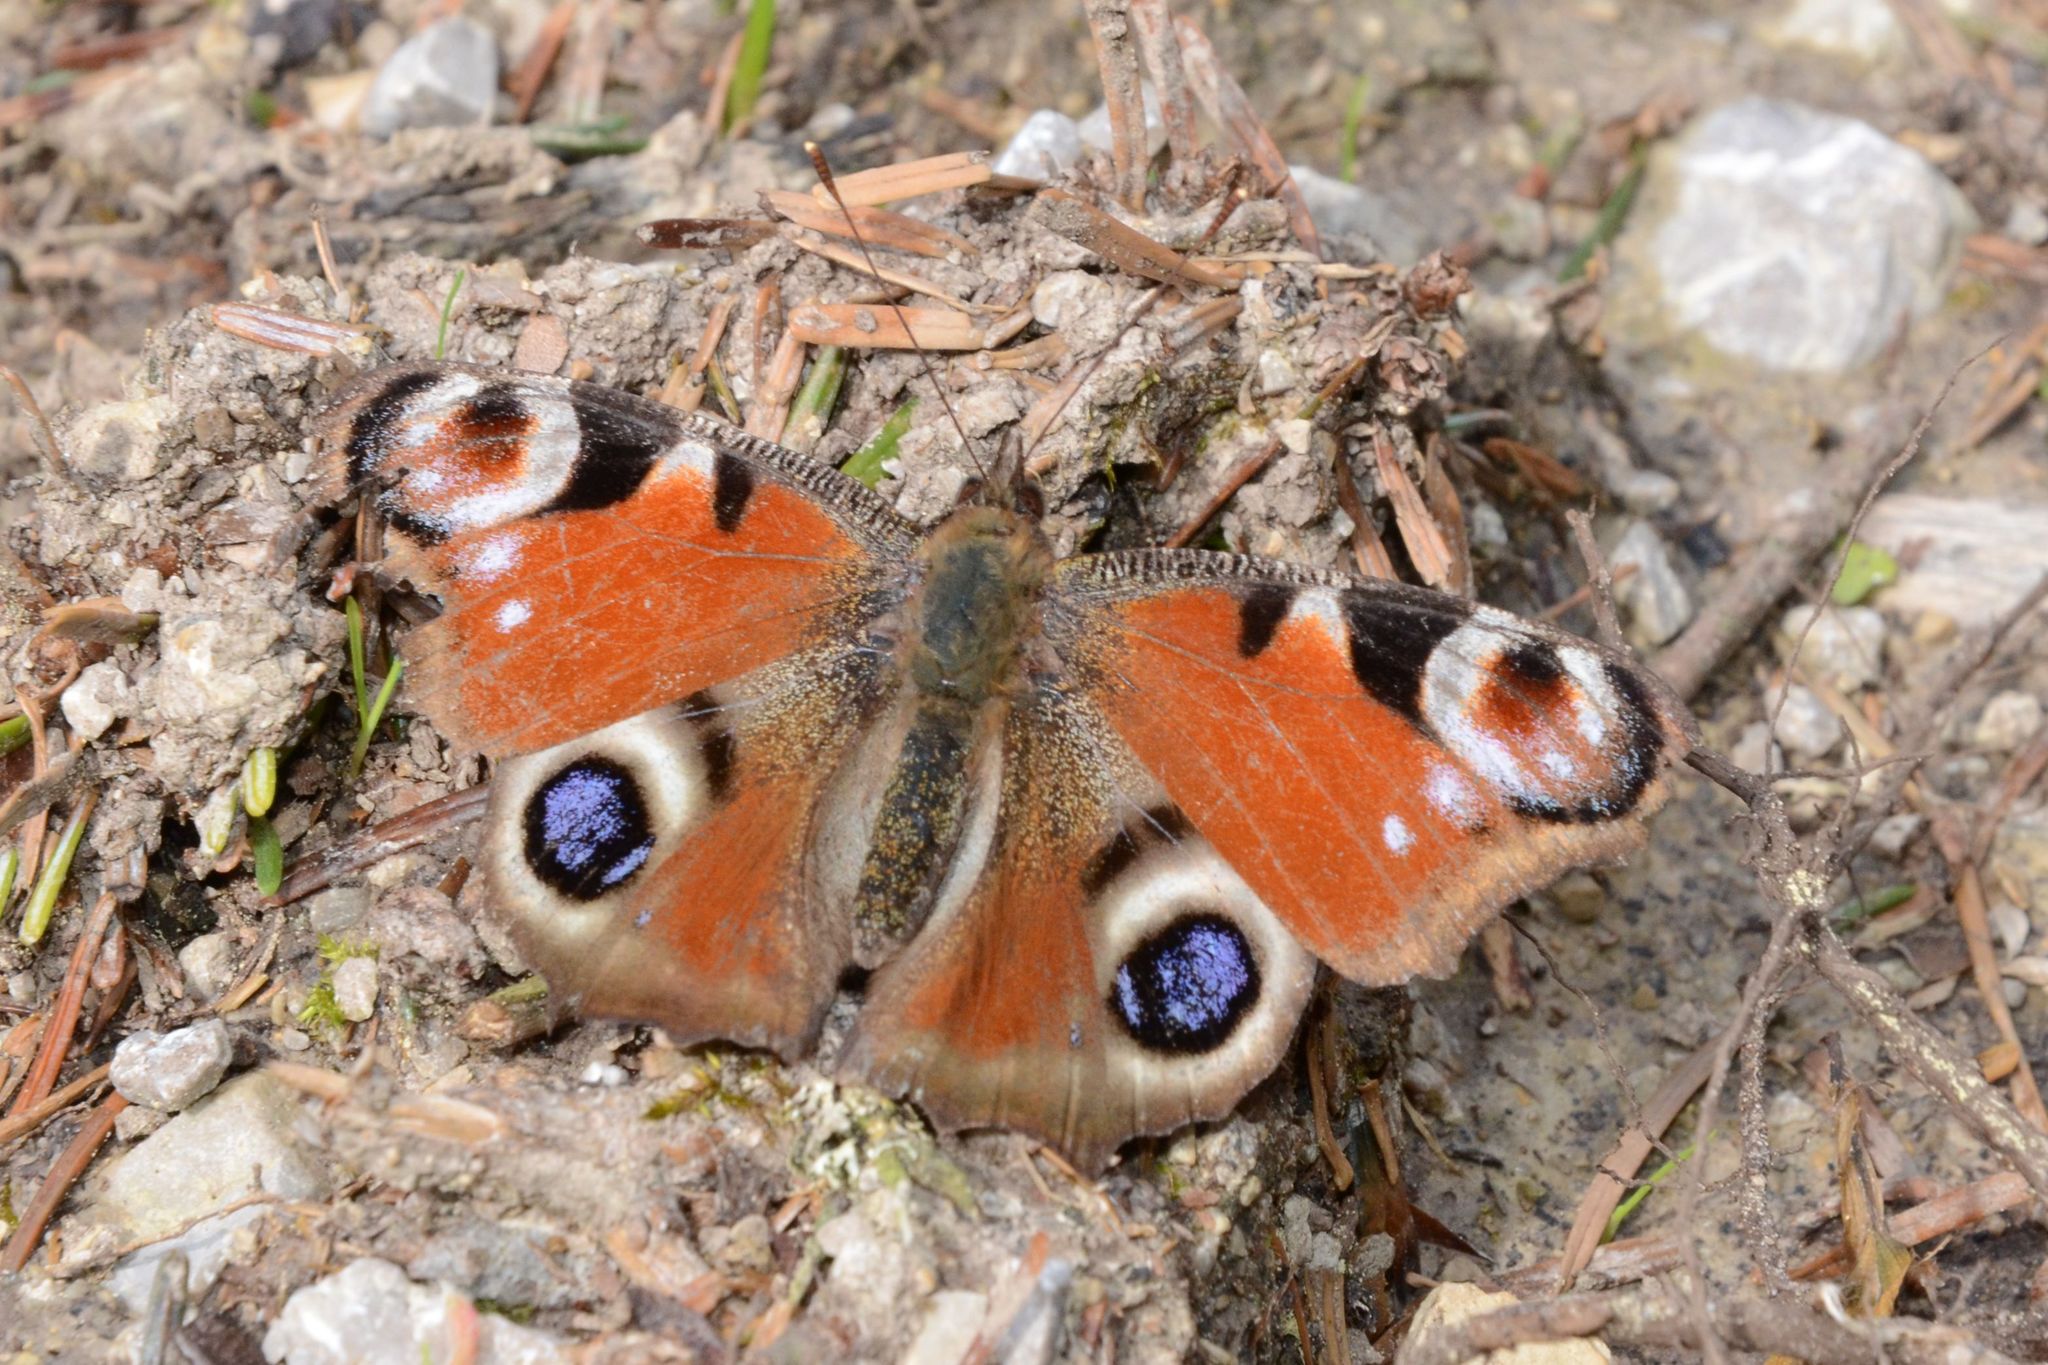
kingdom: Animalia
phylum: Arthropoda
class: Insecta
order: Lepidoptera
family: Nymphalidae
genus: Aglais
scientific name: Aglais io
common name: Peacock
